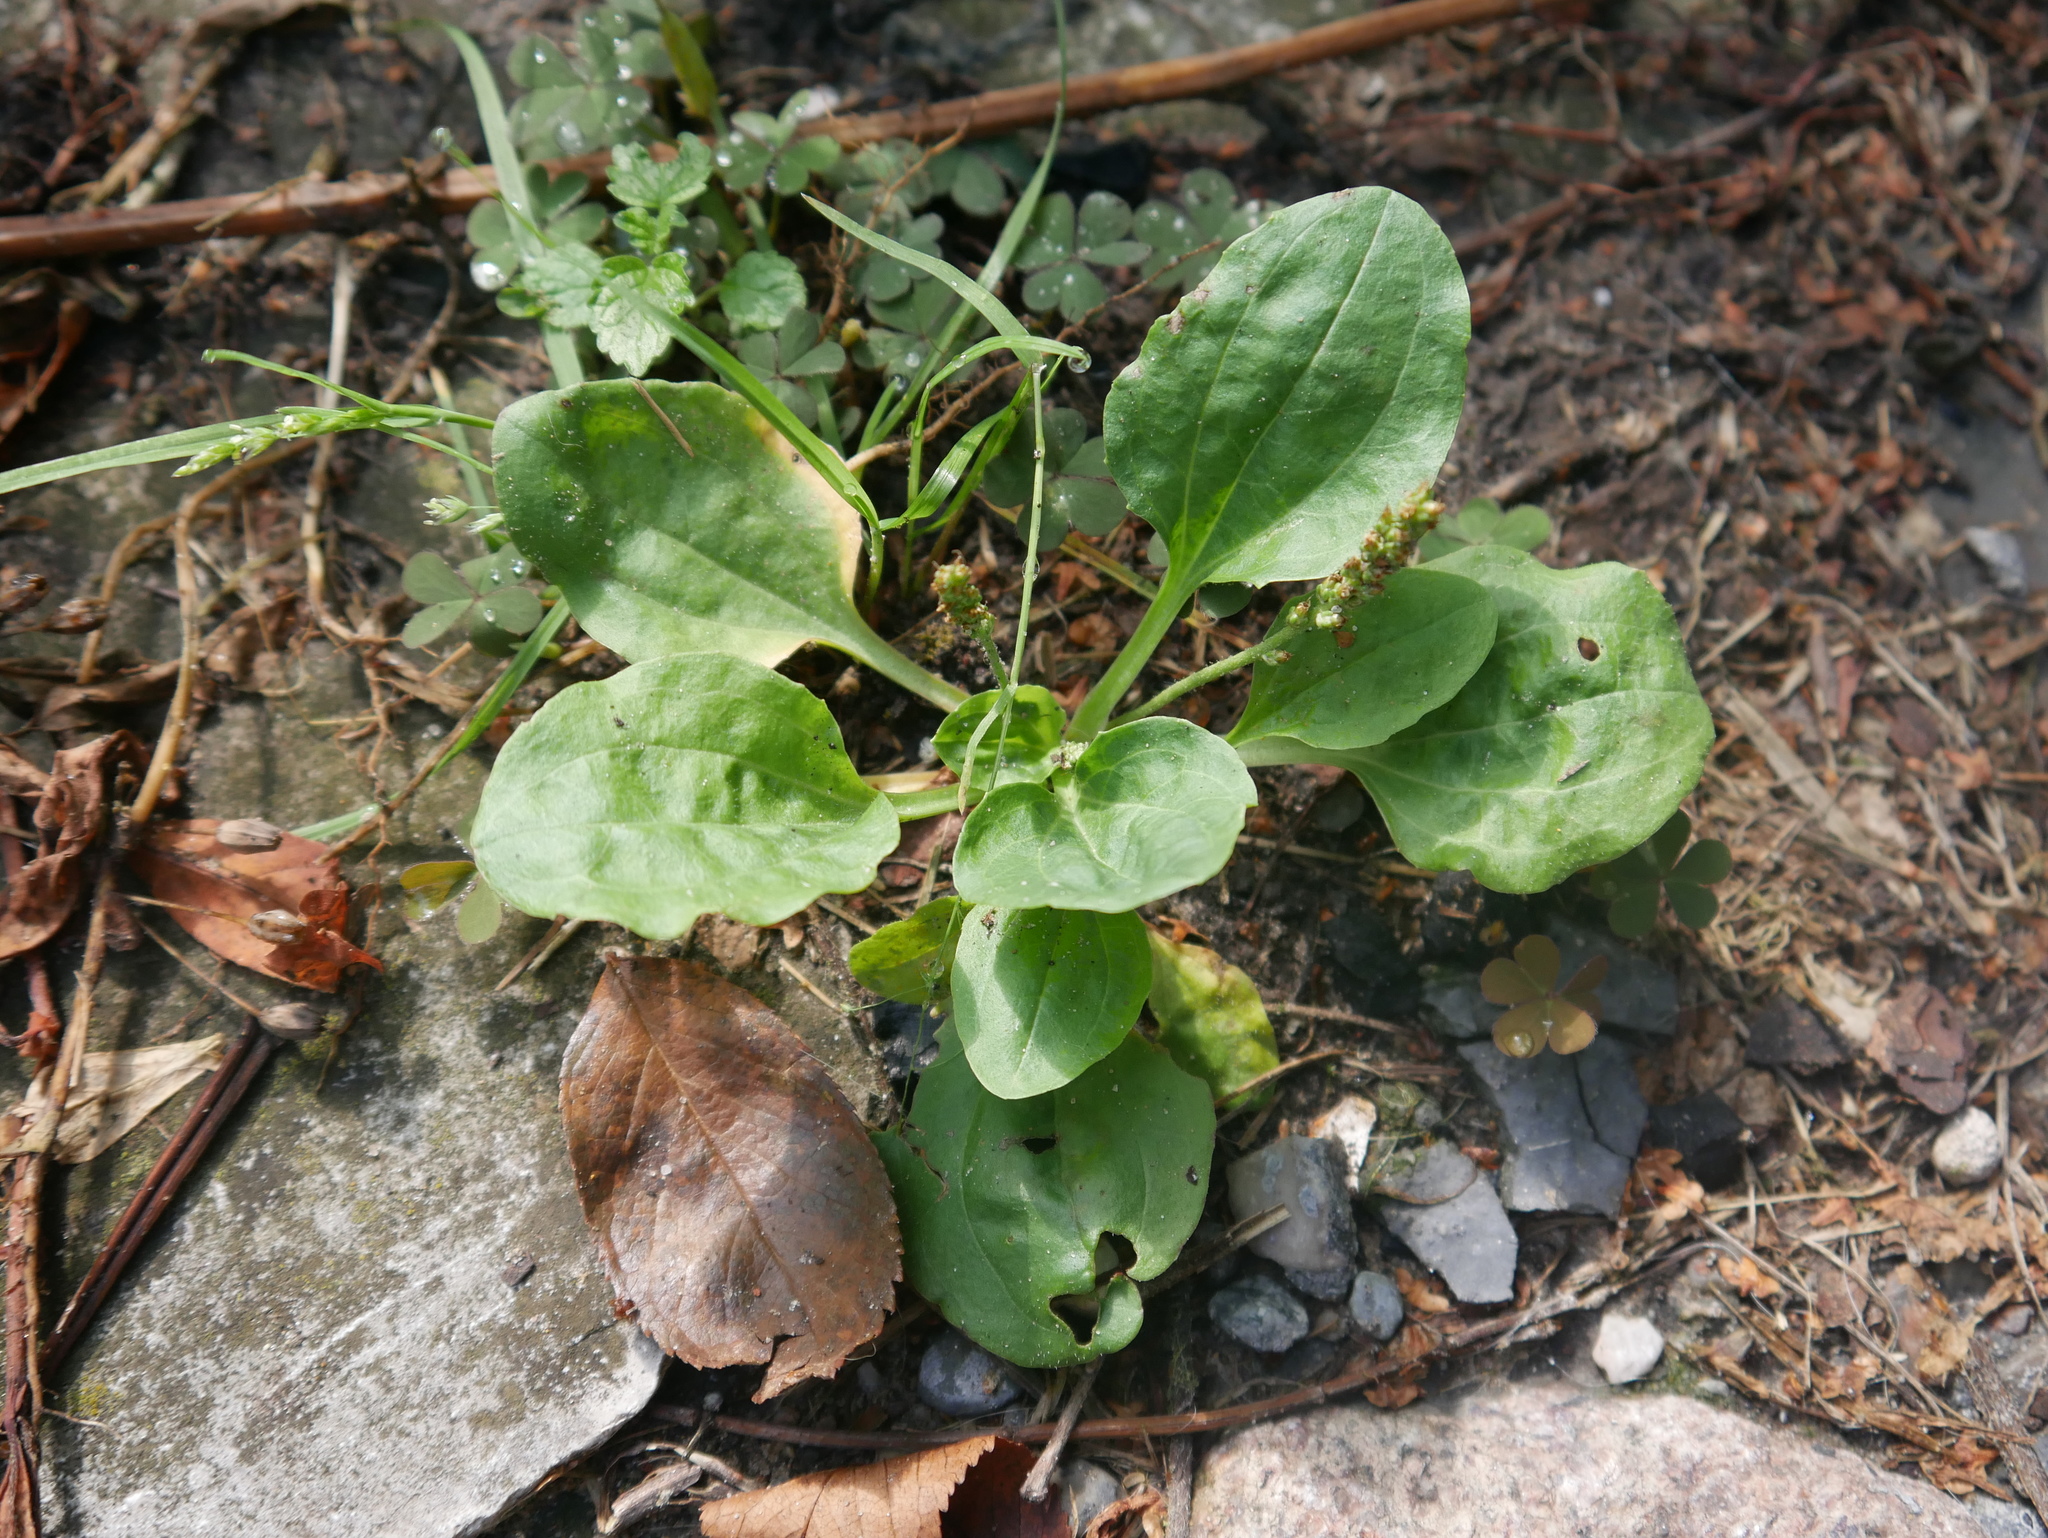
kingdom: Plantae
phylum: Tracheophyta
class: Magnoliopsida
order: Lamiales
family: Plantaginaceae
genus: Plantago
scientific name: Plantago major
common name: Common plantain
